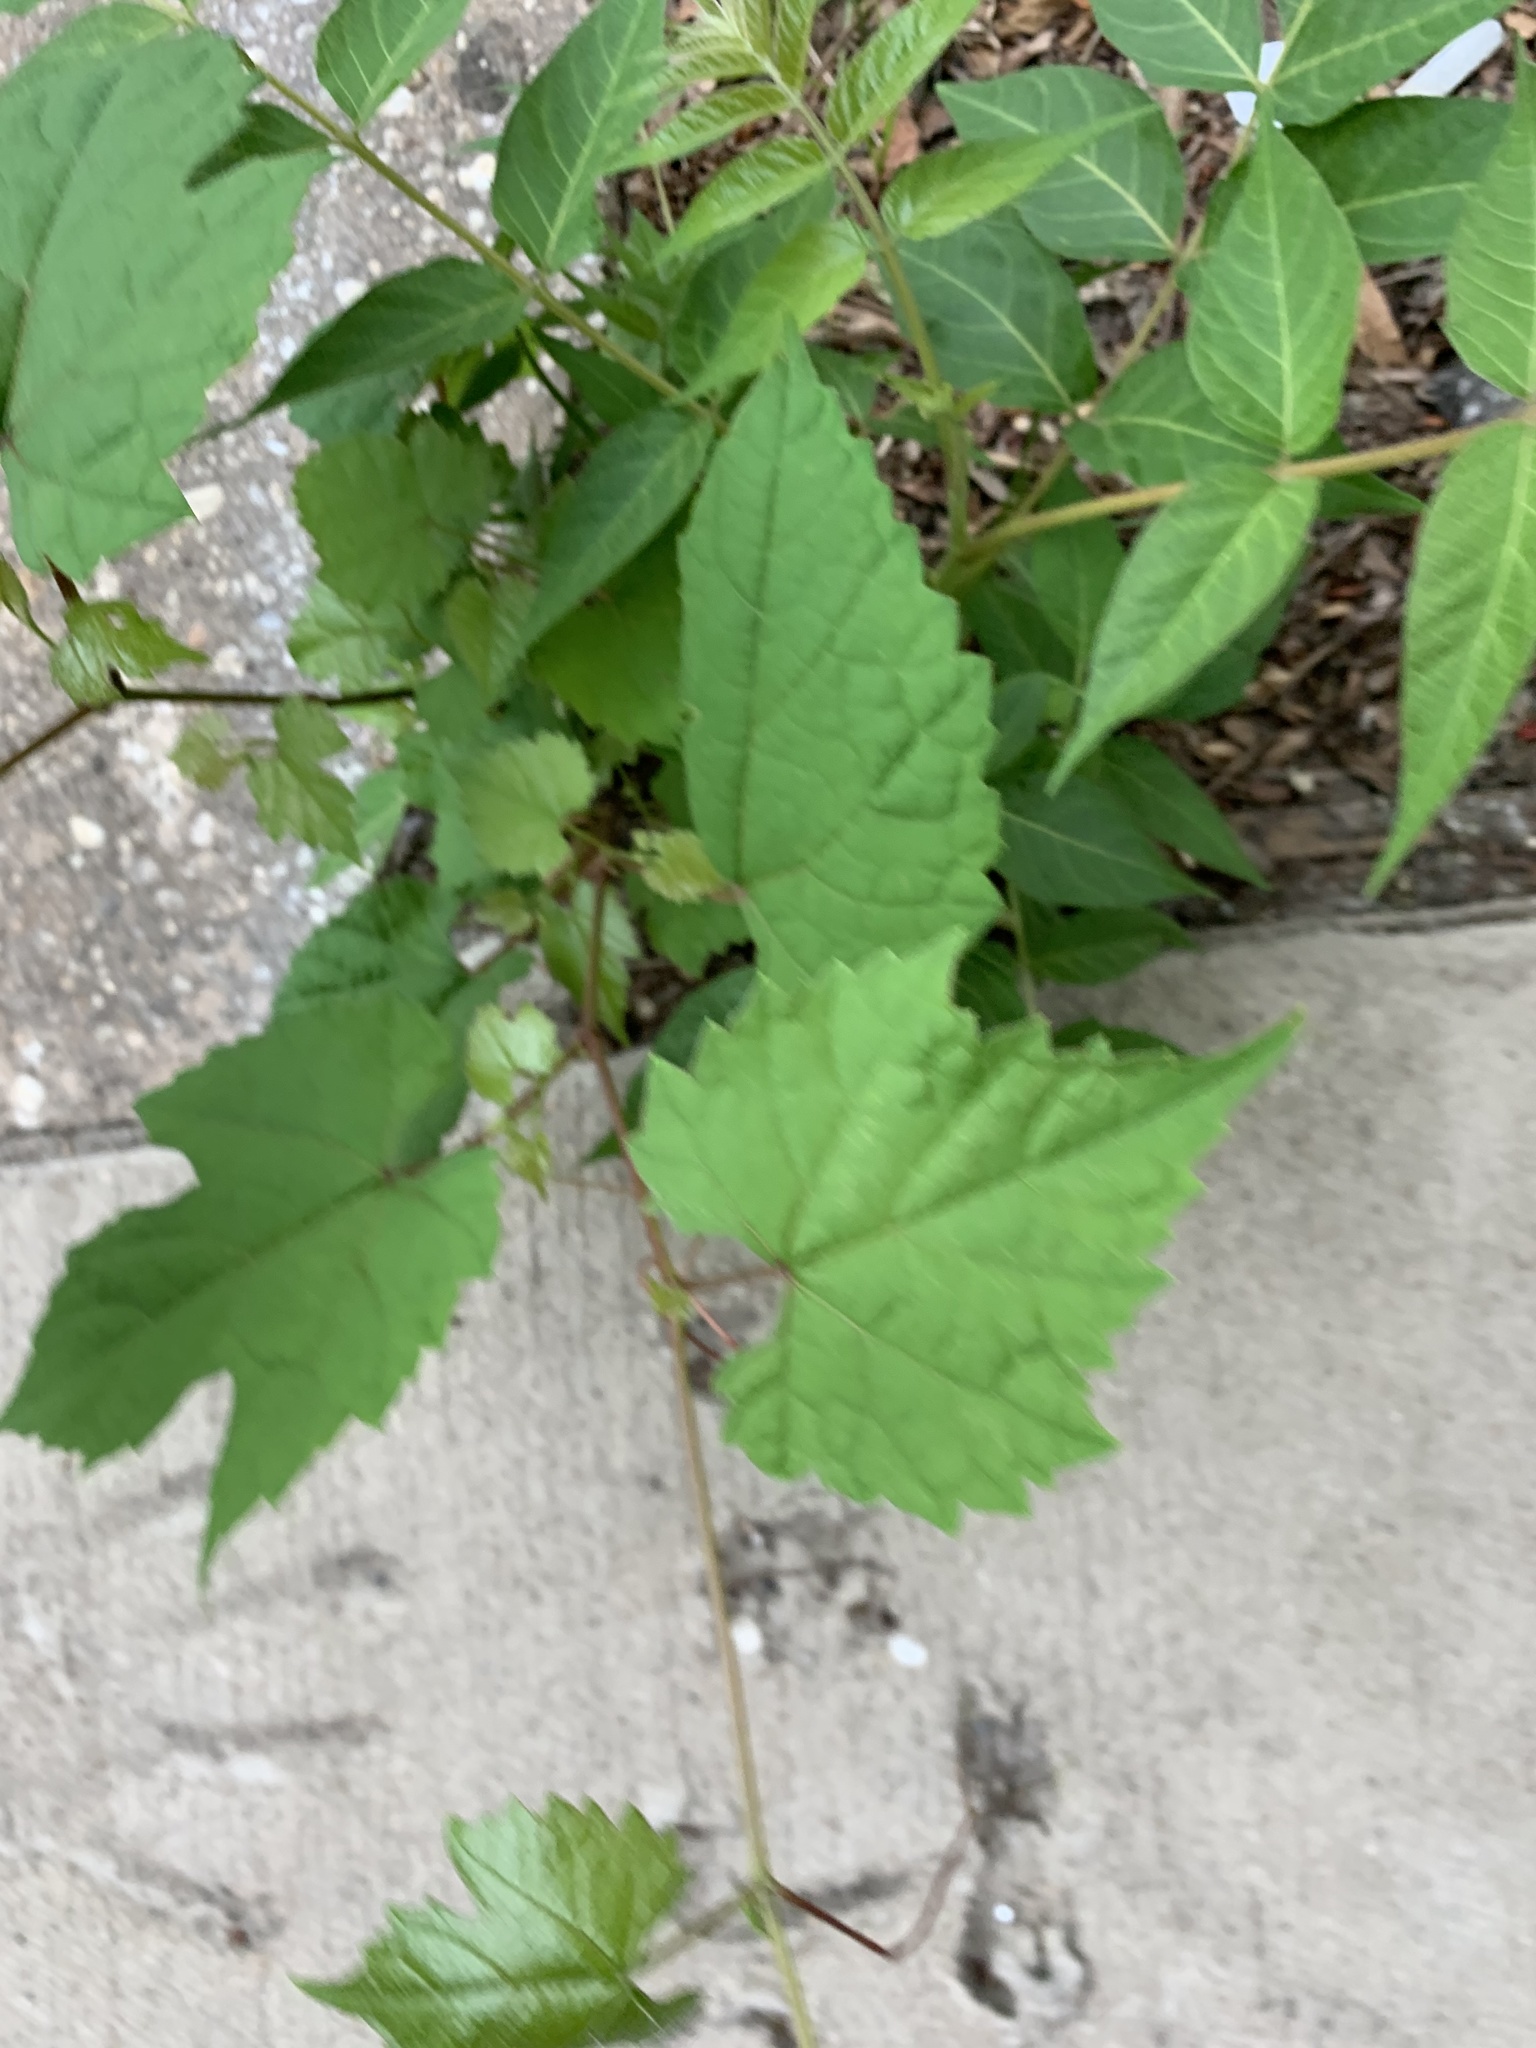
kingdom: Plantae
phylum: Tracheophyta
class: Magnoliopsida
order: Vitales
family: Vitaceae
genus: Ampelopsis
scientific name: Ampelopsis glandulosa
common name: Amur peppervine
